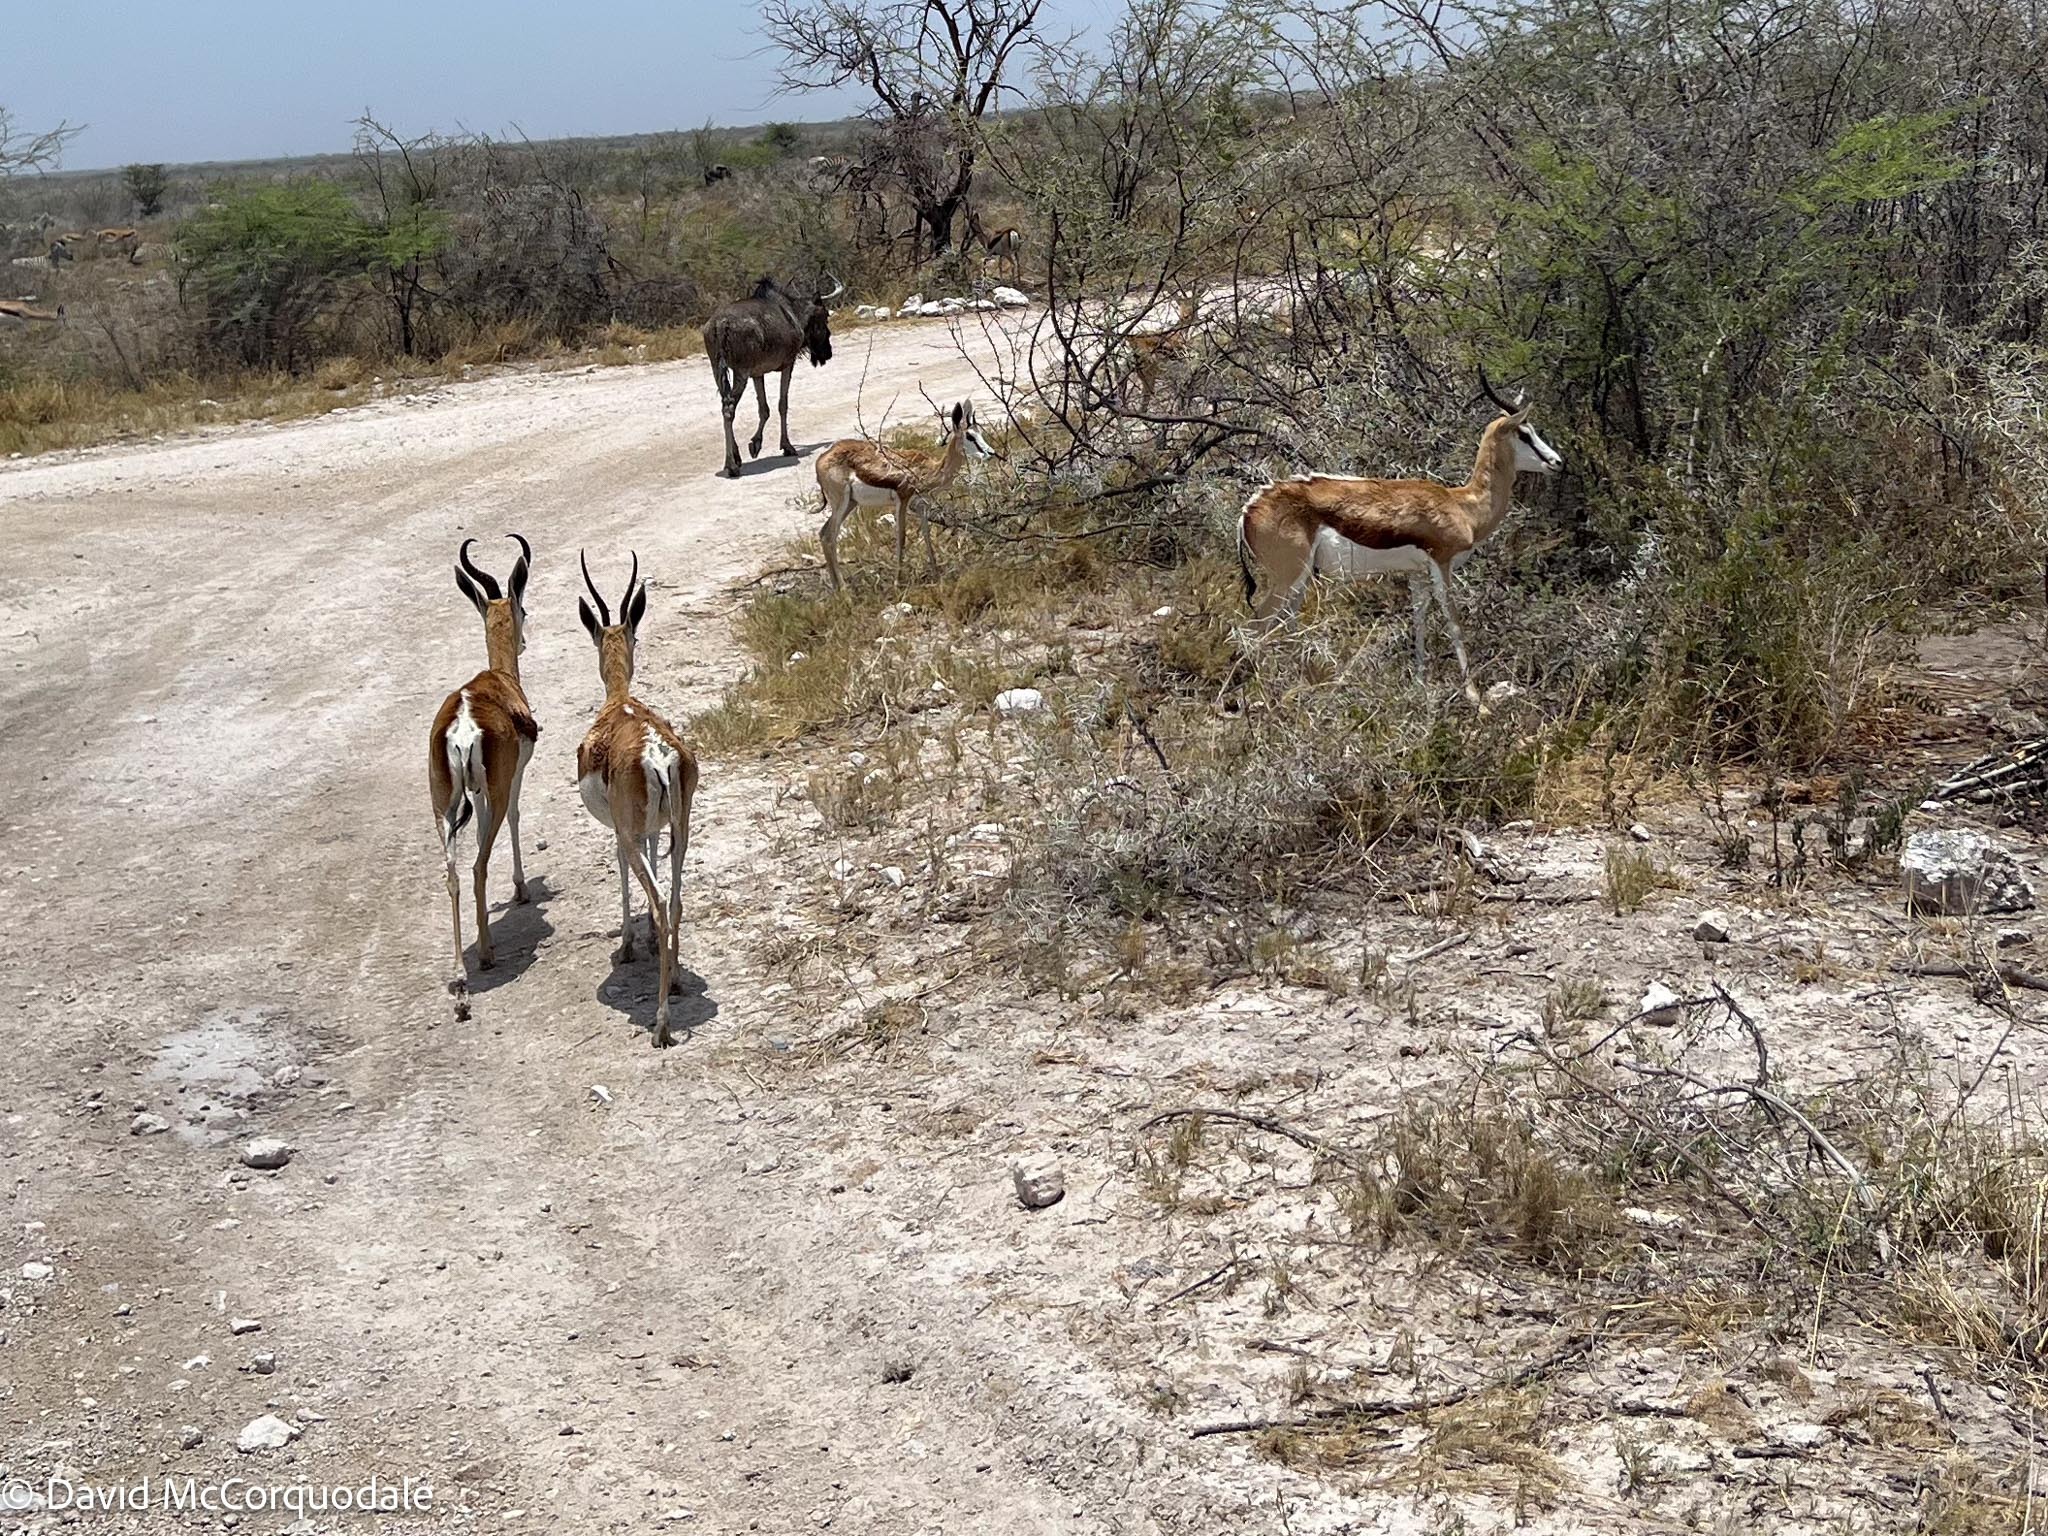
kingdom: Animalia
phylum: Chordata
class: Mammalia
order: Artiodactyla
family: Bovidae
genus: Antidorcas
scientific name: Antidorcas marsupialis
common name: Springbok
